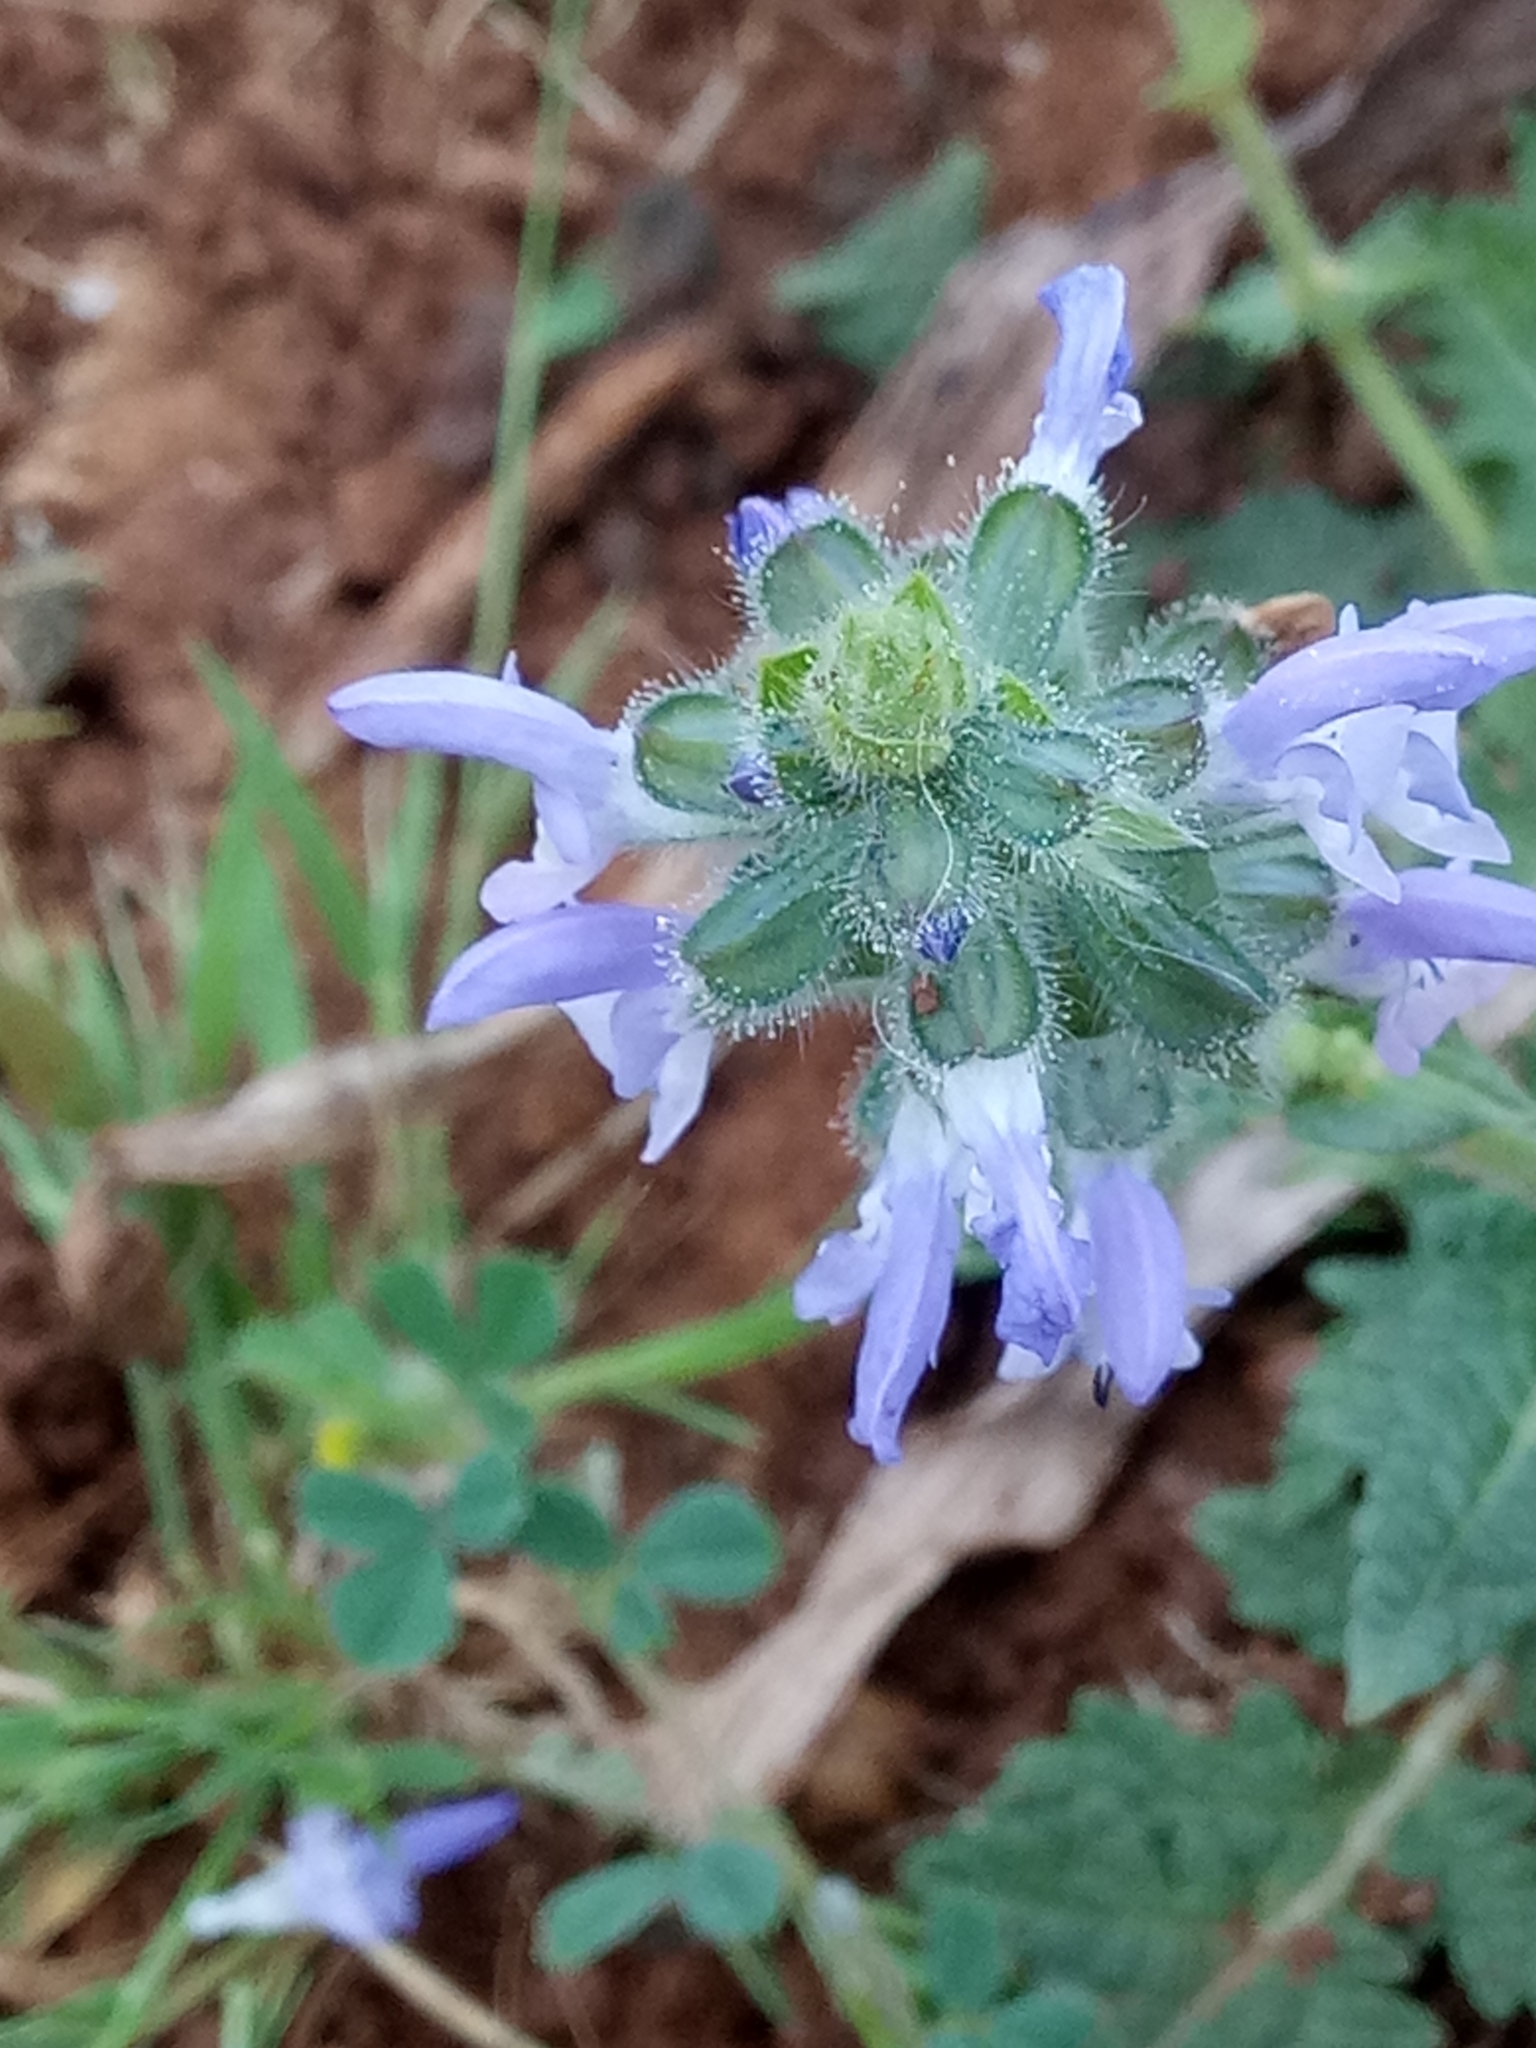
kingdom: Plantae
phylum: Tracheophyta
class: Magnoliopsida
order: Lamiales
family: Lamiaceae
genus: Salvia
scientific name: Salvia verbenaca
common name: Wild clary
